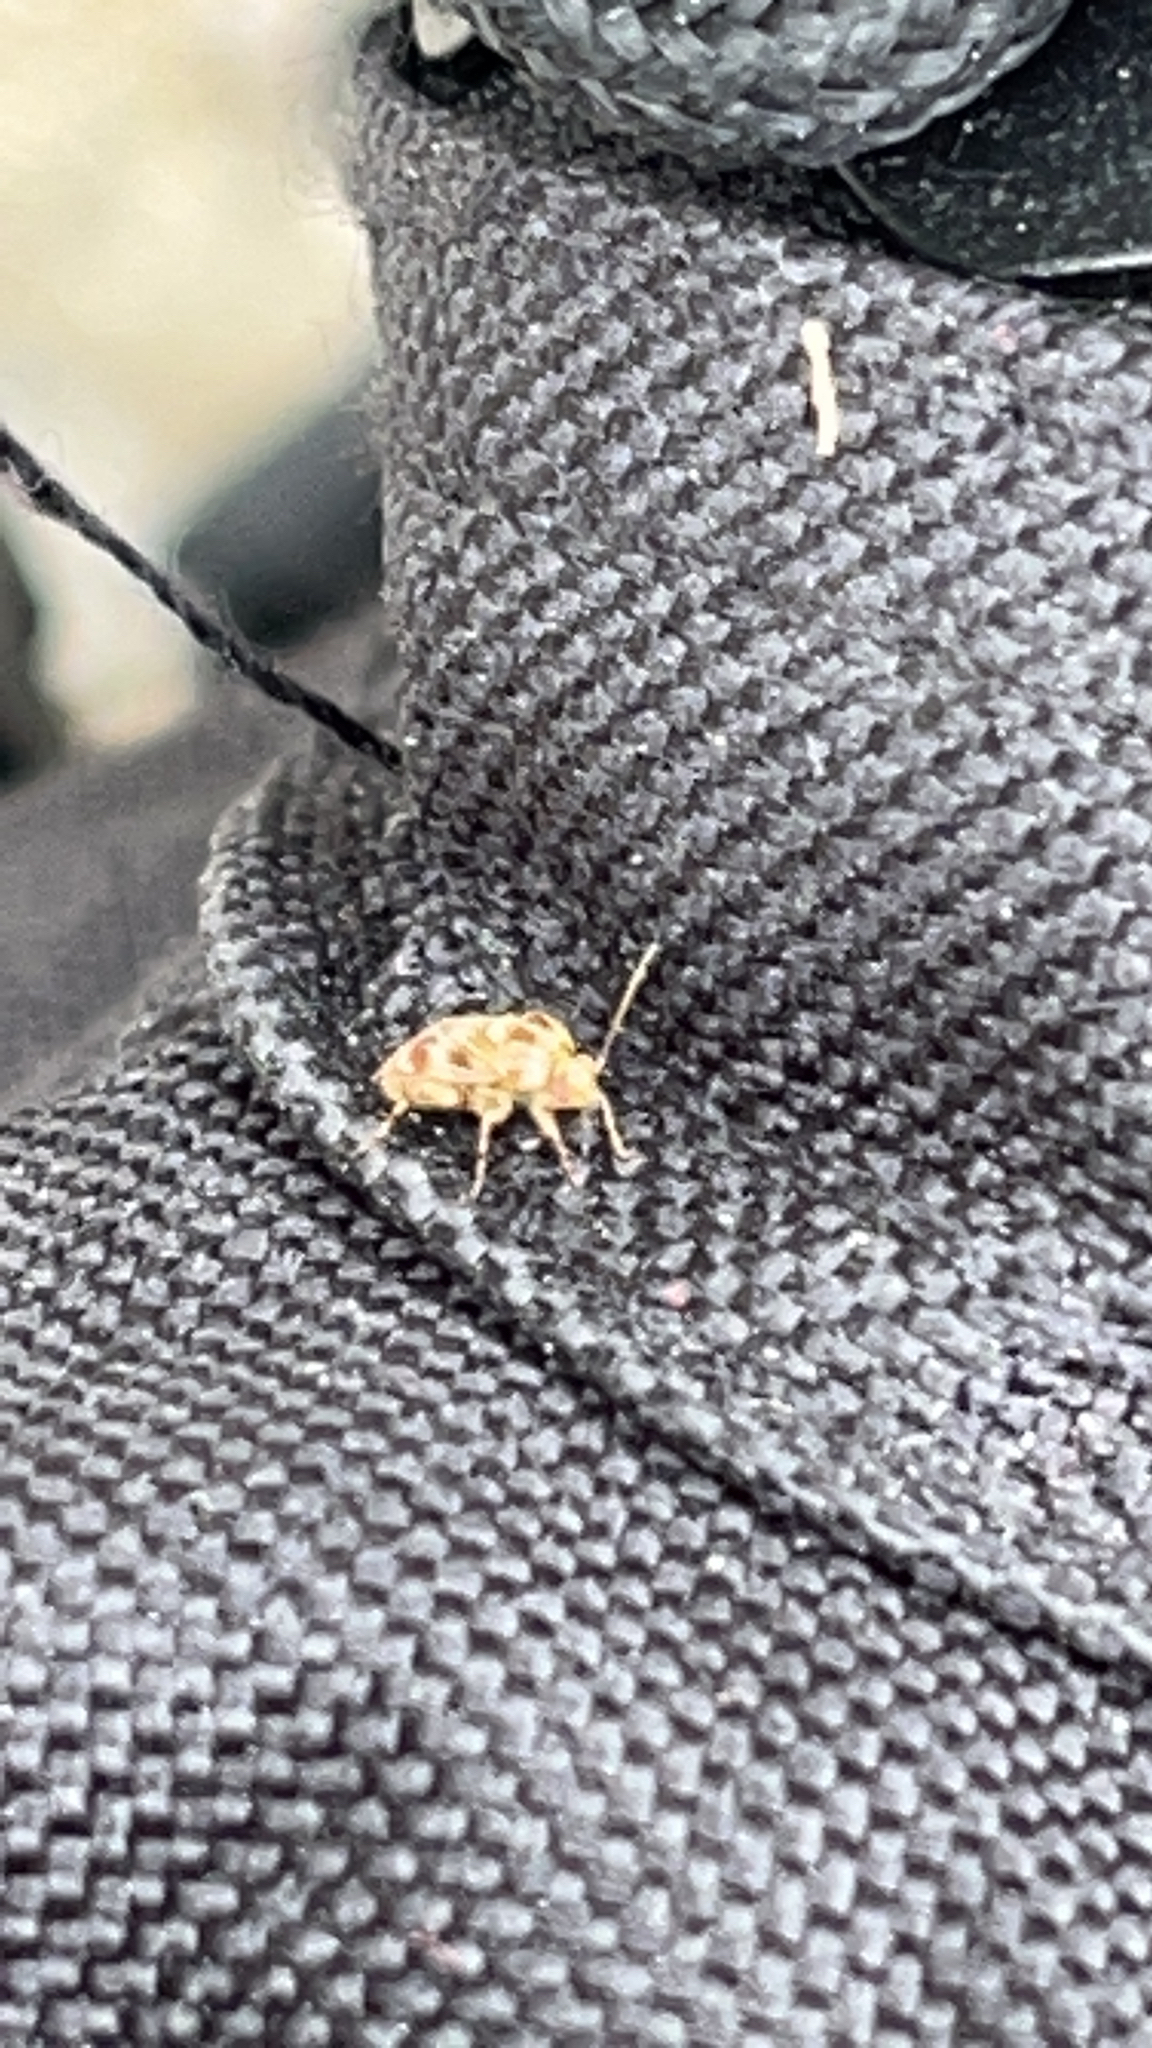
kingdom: Animalia
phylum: Arthropoda
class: Insecta
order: Hemiptera
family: Miridae
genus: Tropidosteptes
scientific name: Tropidosteptes quercicola
